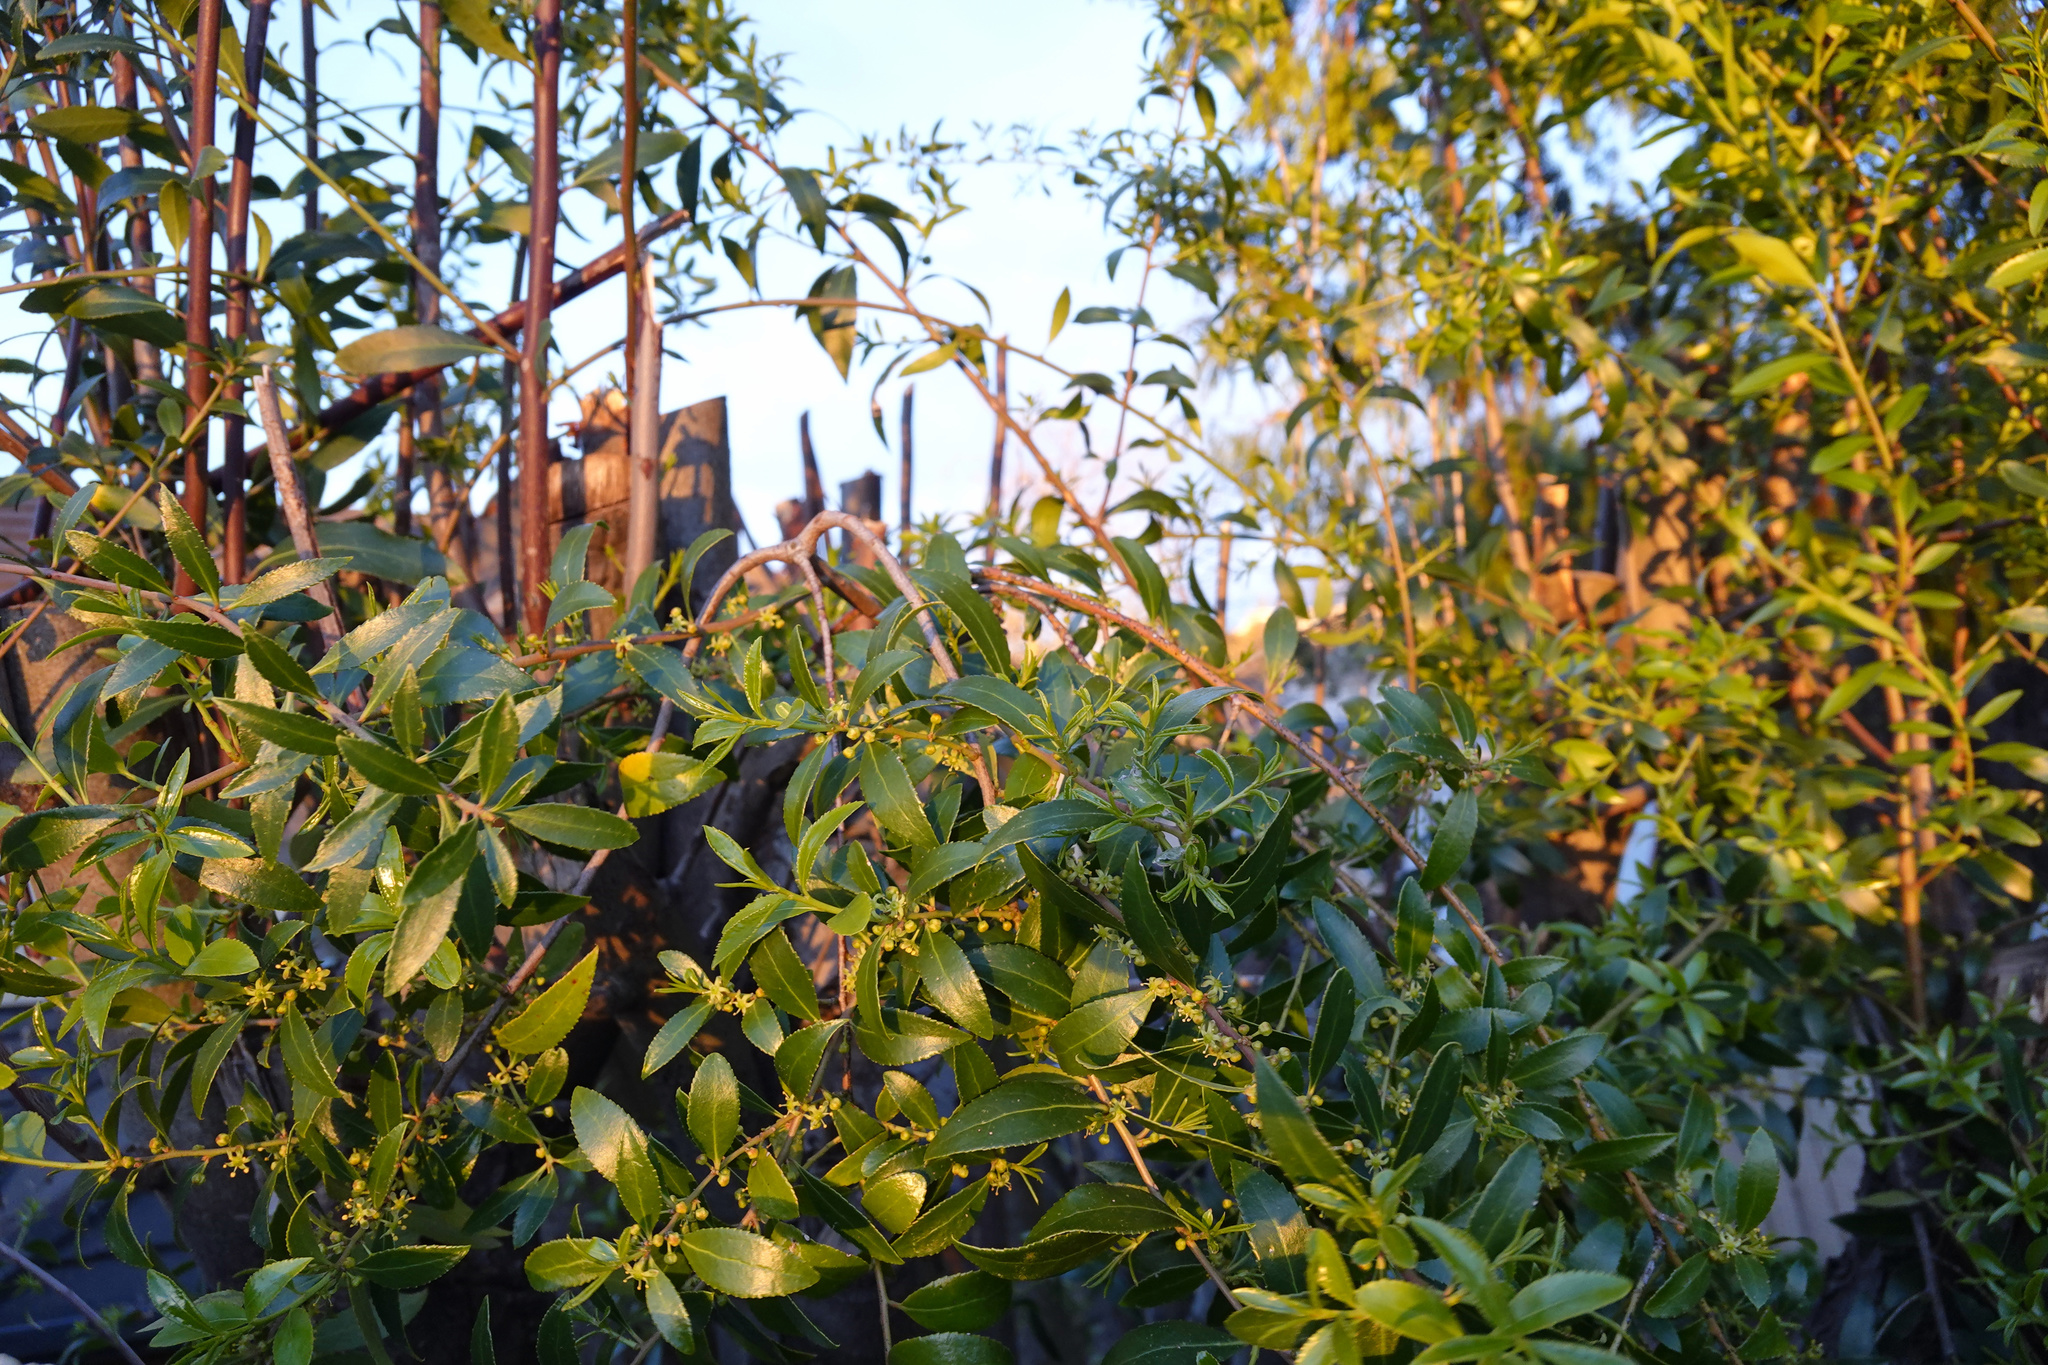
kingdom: Plantae
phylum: Tracheophyta
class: Magnoliopsida
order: Celastrales
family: Celastraceae
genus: Maytenus
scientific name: Maytenus boaria
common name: Mayten
